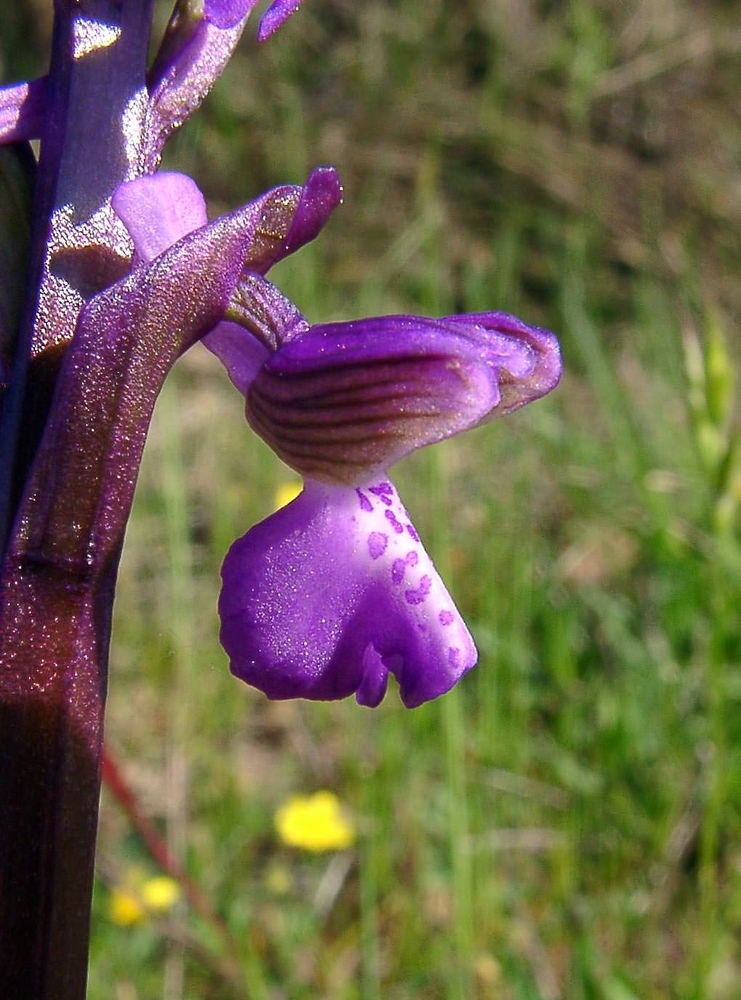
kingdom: Plantae
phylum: Tracheophyta
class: Liliopsida
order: Asparagales
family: Orchidaceae
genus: Anacamptis
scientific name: Anacamptis morio
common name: Green-winged orchid
